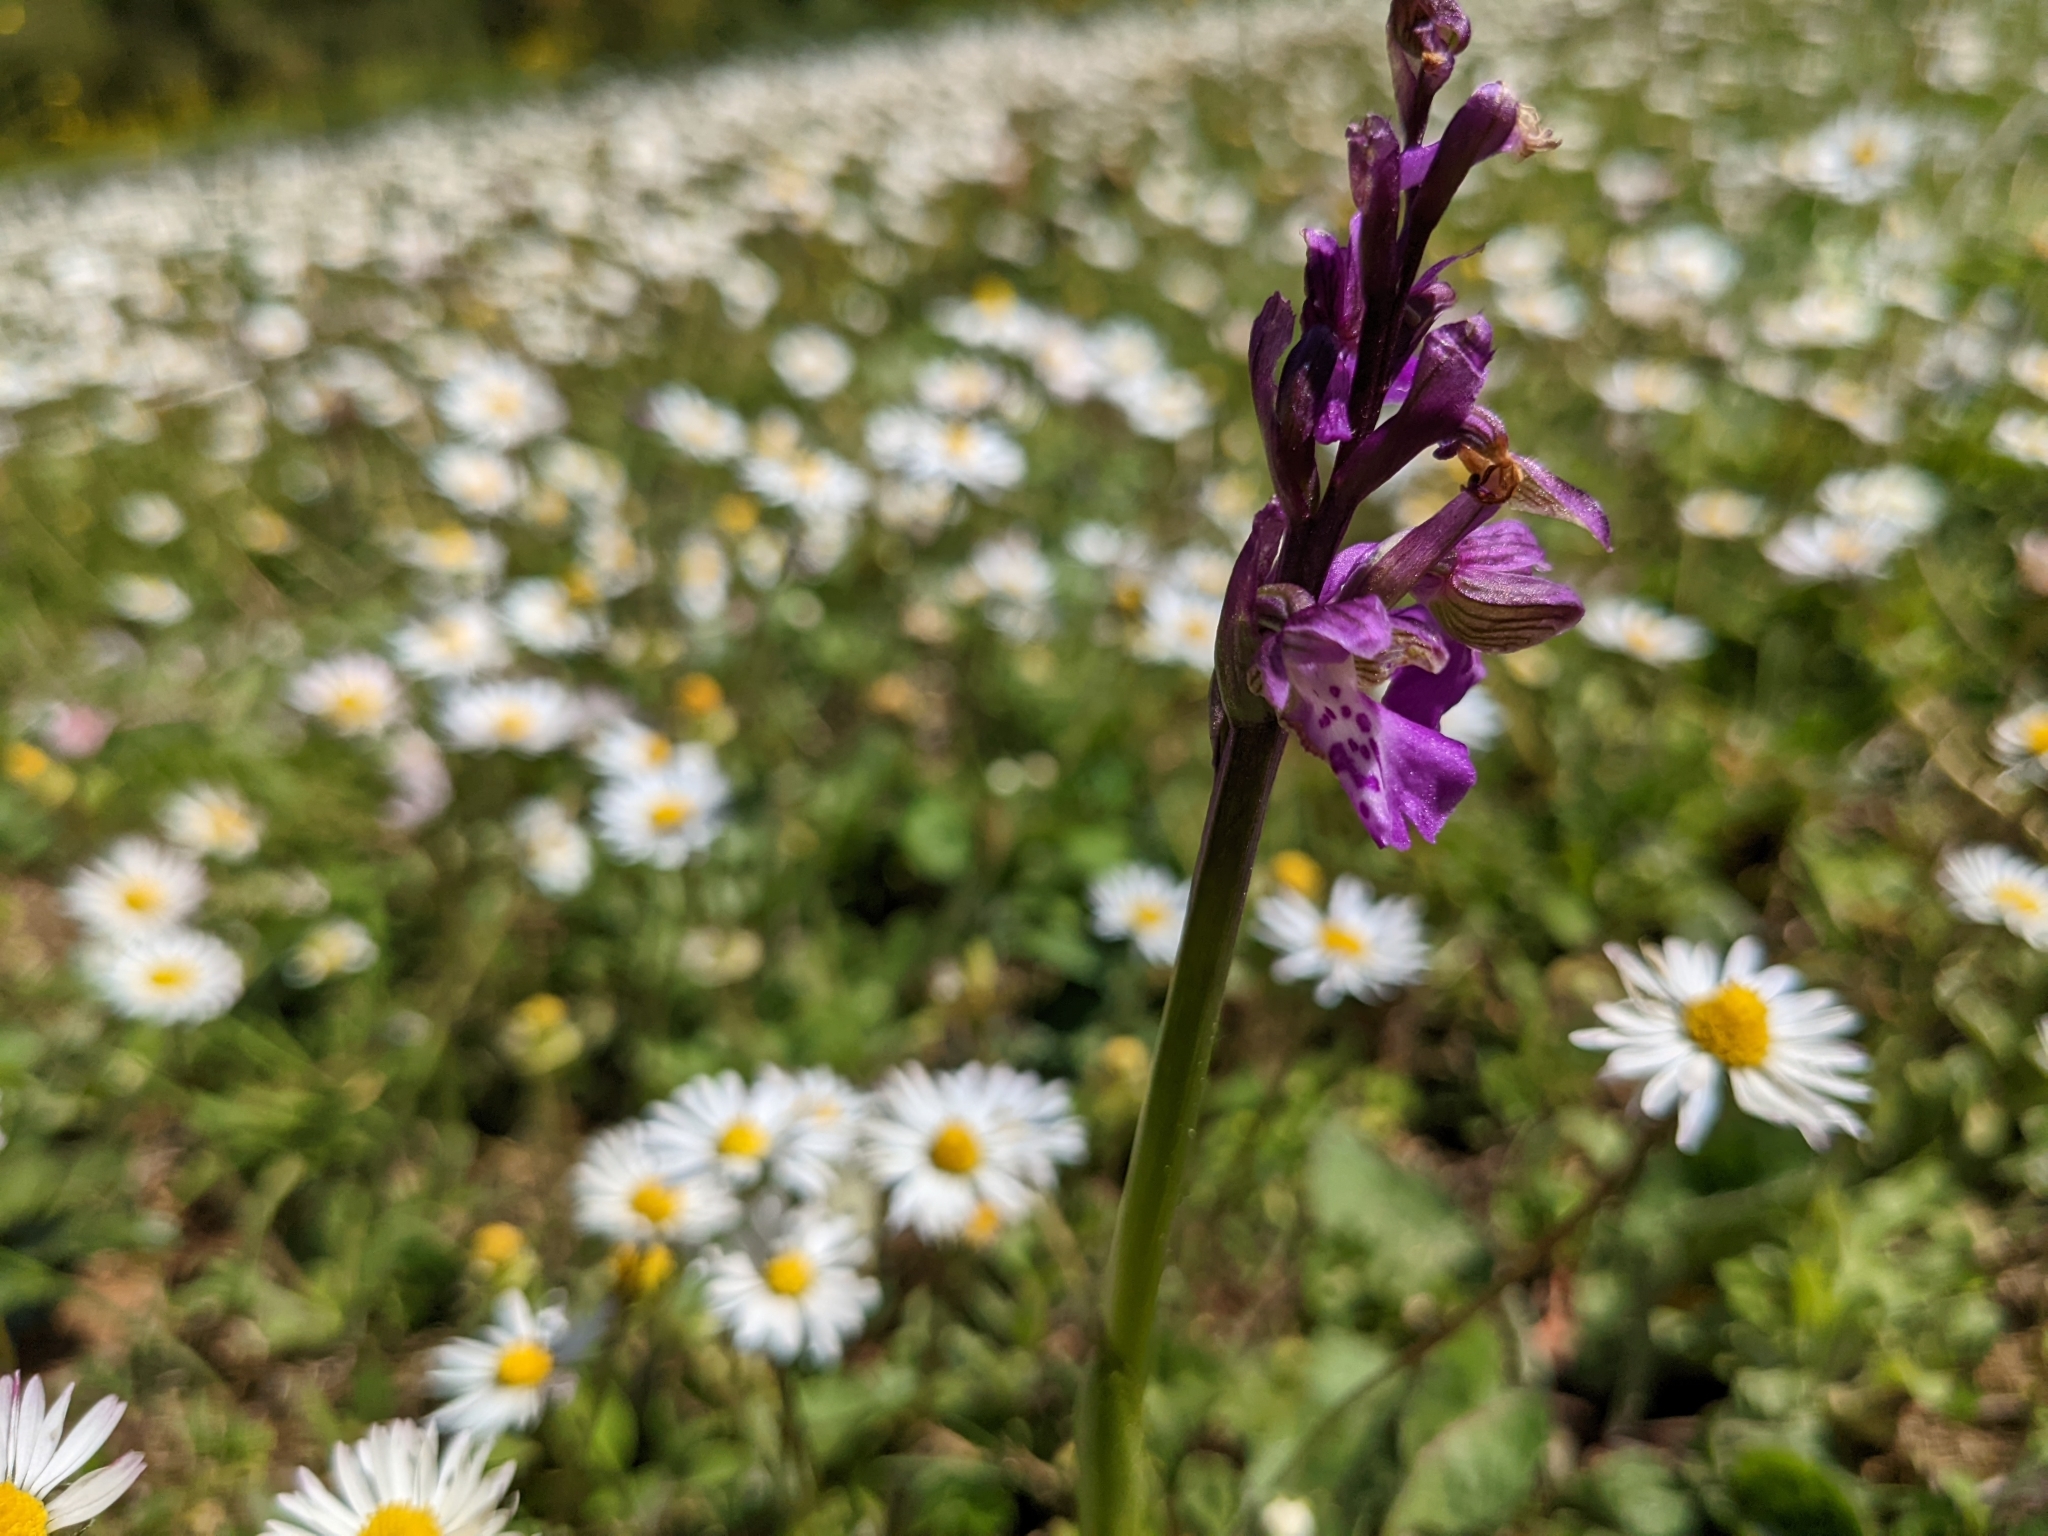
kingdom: Plantae
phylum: Tracheophyta
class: Liliopsida
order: Asparagales
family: Orchidaceae
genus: Anacamptis
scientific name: Anacamptis morio
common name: Green-winged orchid
